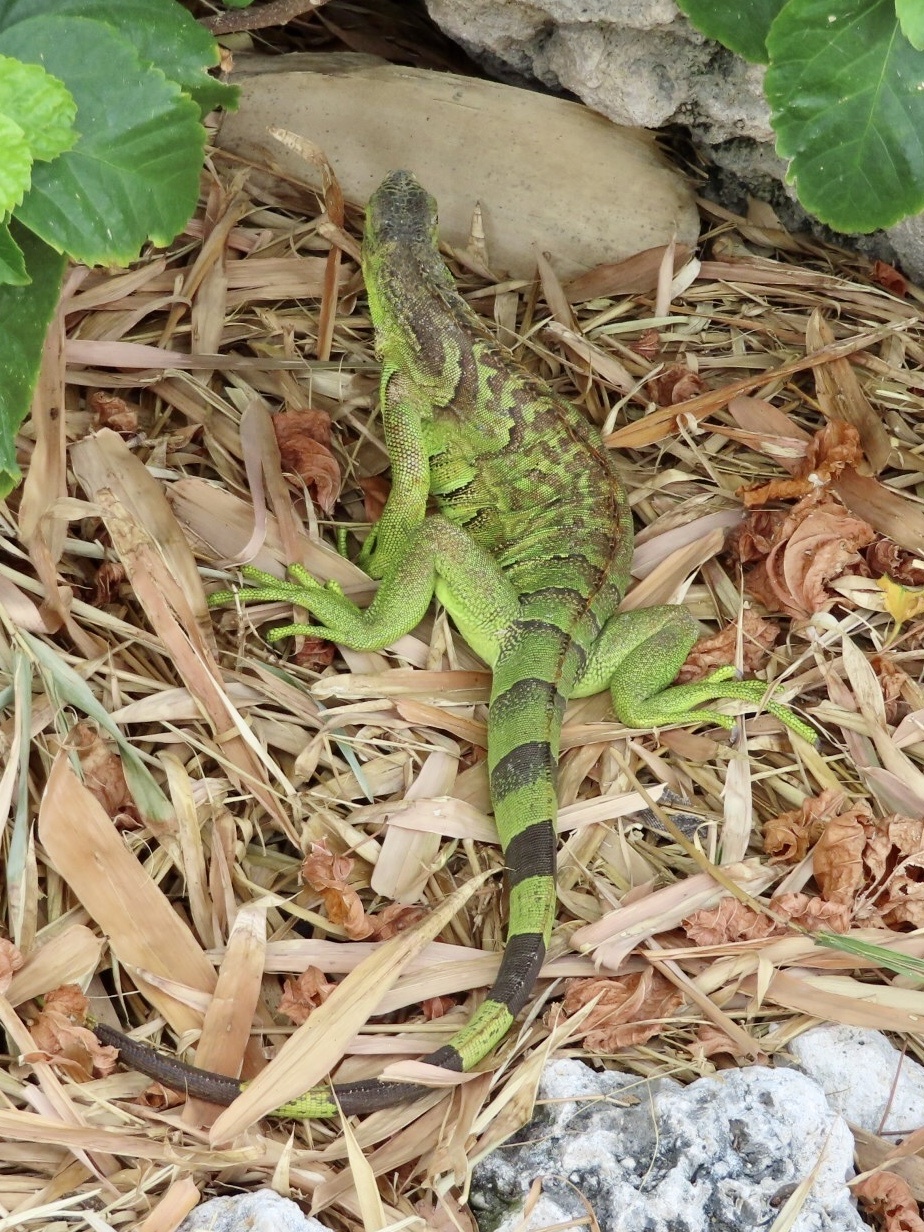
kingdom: Animalia
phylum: Chordata
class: Squamata
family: Iguanidae
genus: Iguana
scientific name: Iguana iguana
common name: Green iguana
